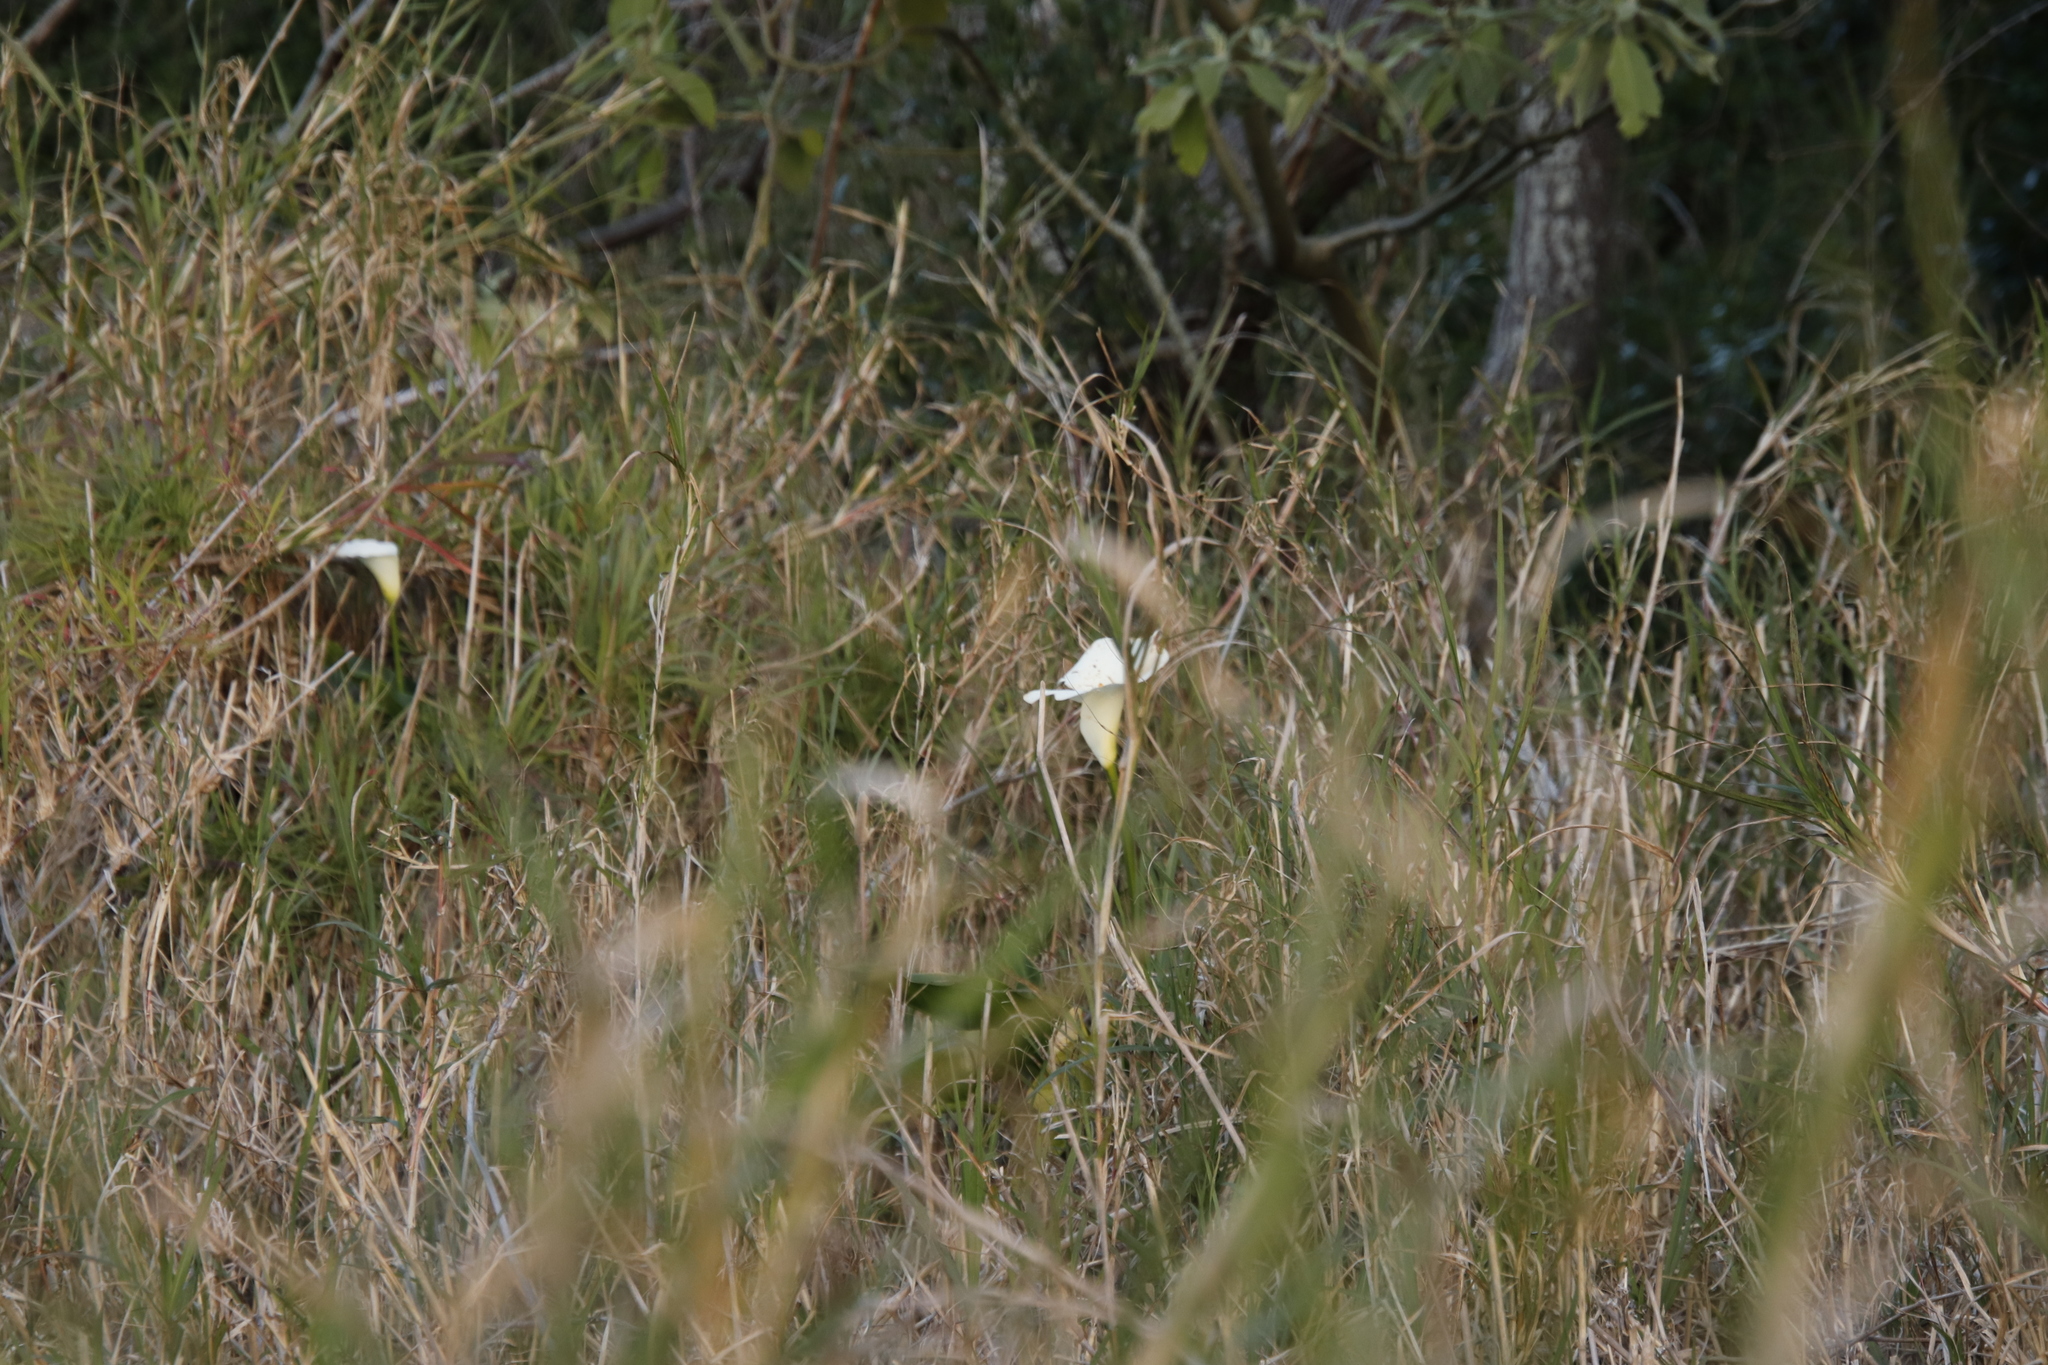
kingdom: Plantae
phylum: Tracheophyta
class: Liliopsida
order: Alismatales
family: Araceae
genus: Zantedeschia
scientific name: Zantedeschia aethiopica
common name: Altar-lily
